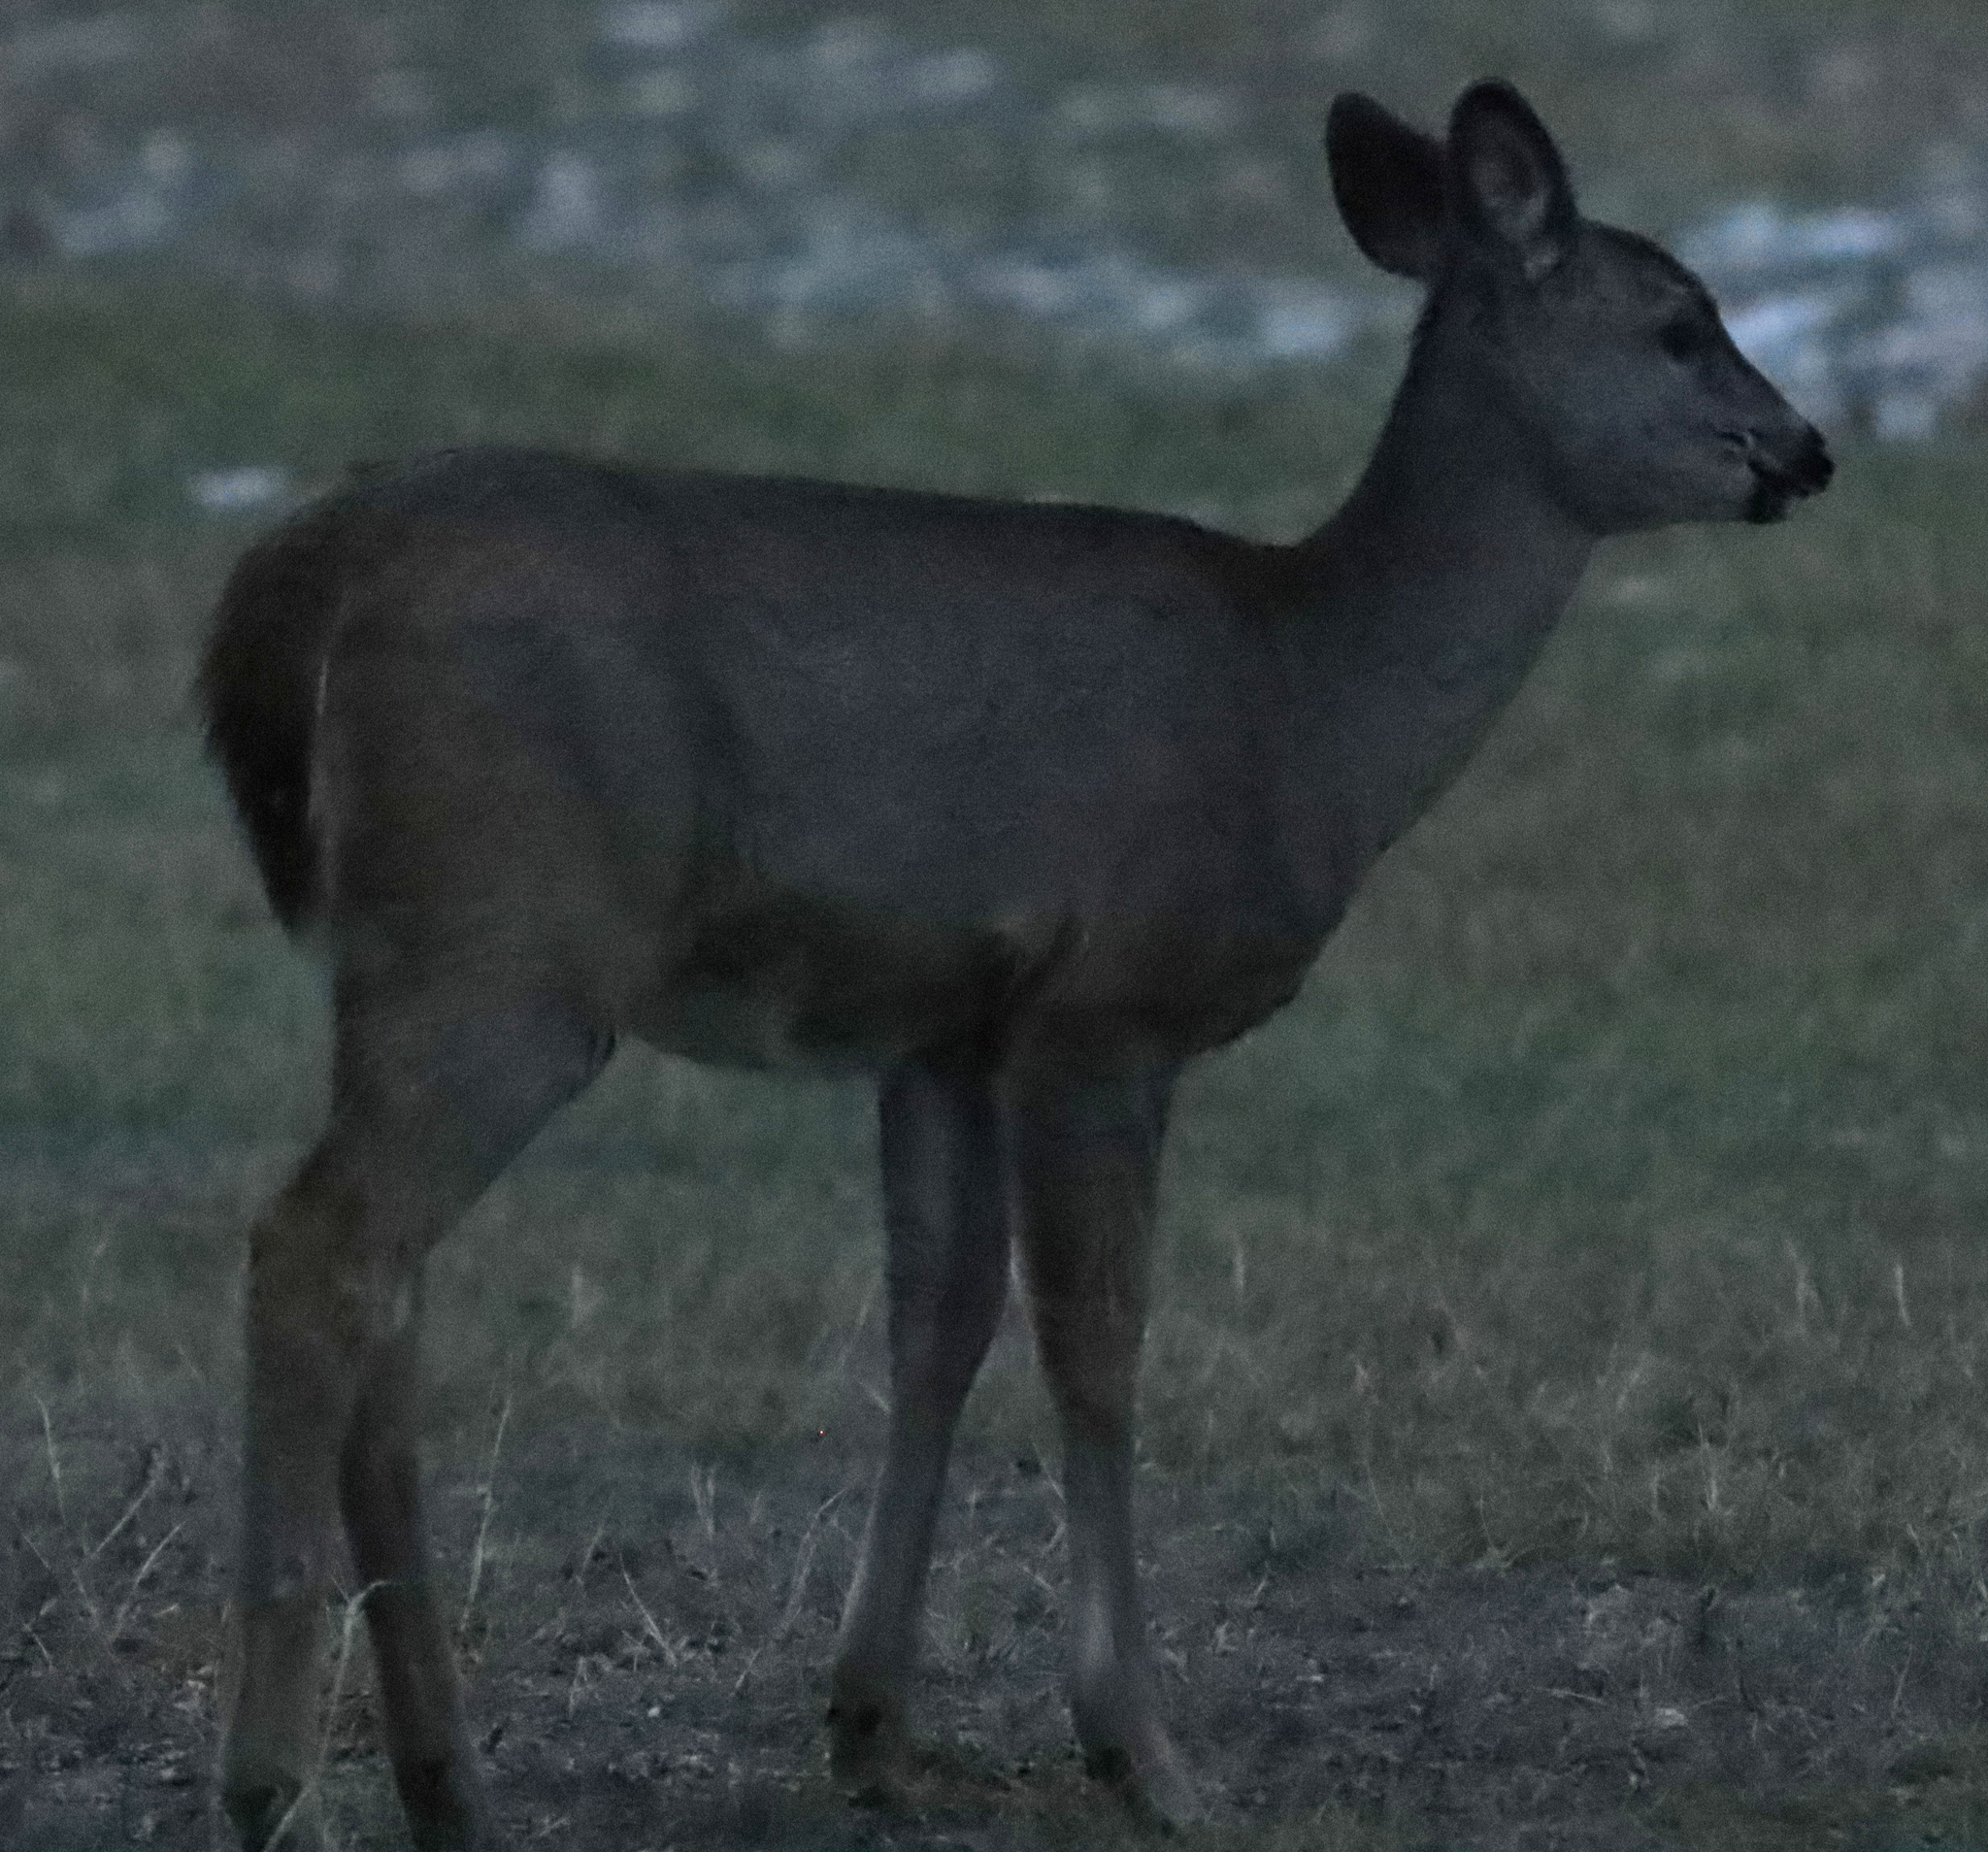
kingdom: Animalia
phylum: Chordata
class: Mammalia
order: Artiodactyla
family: Cervidae
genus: Odocoileus
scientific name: Odocoileus virginianus
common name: White-tailed deer
